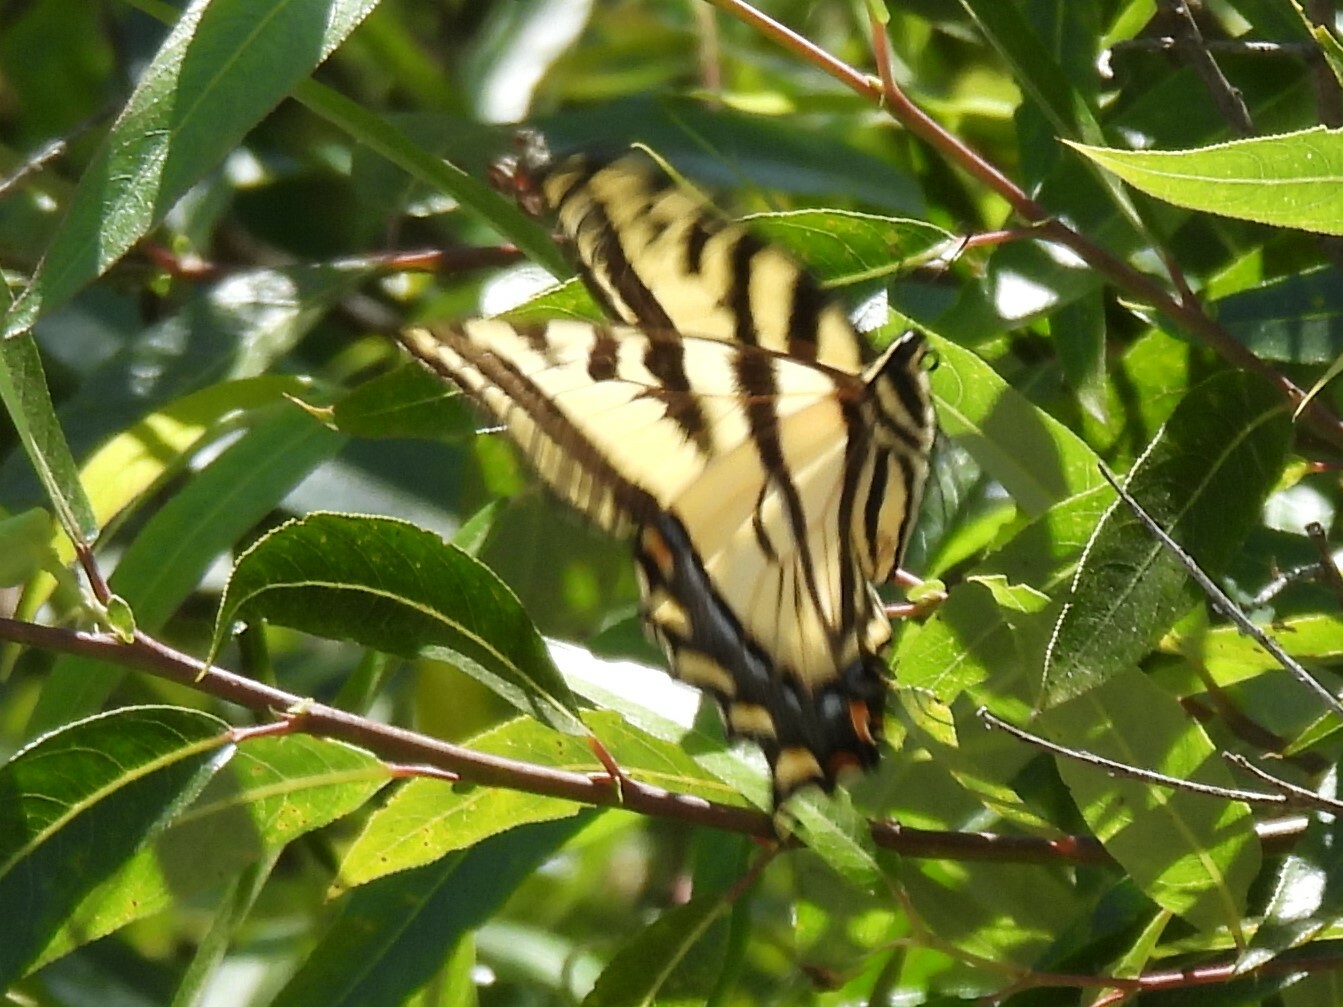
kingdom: Animalia
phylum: Arthropoda
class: Insecta
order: Lepidoptera
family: Papilionidae
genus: Papilio
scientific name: Papilio rutulus
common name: Western tiger swallowtail
